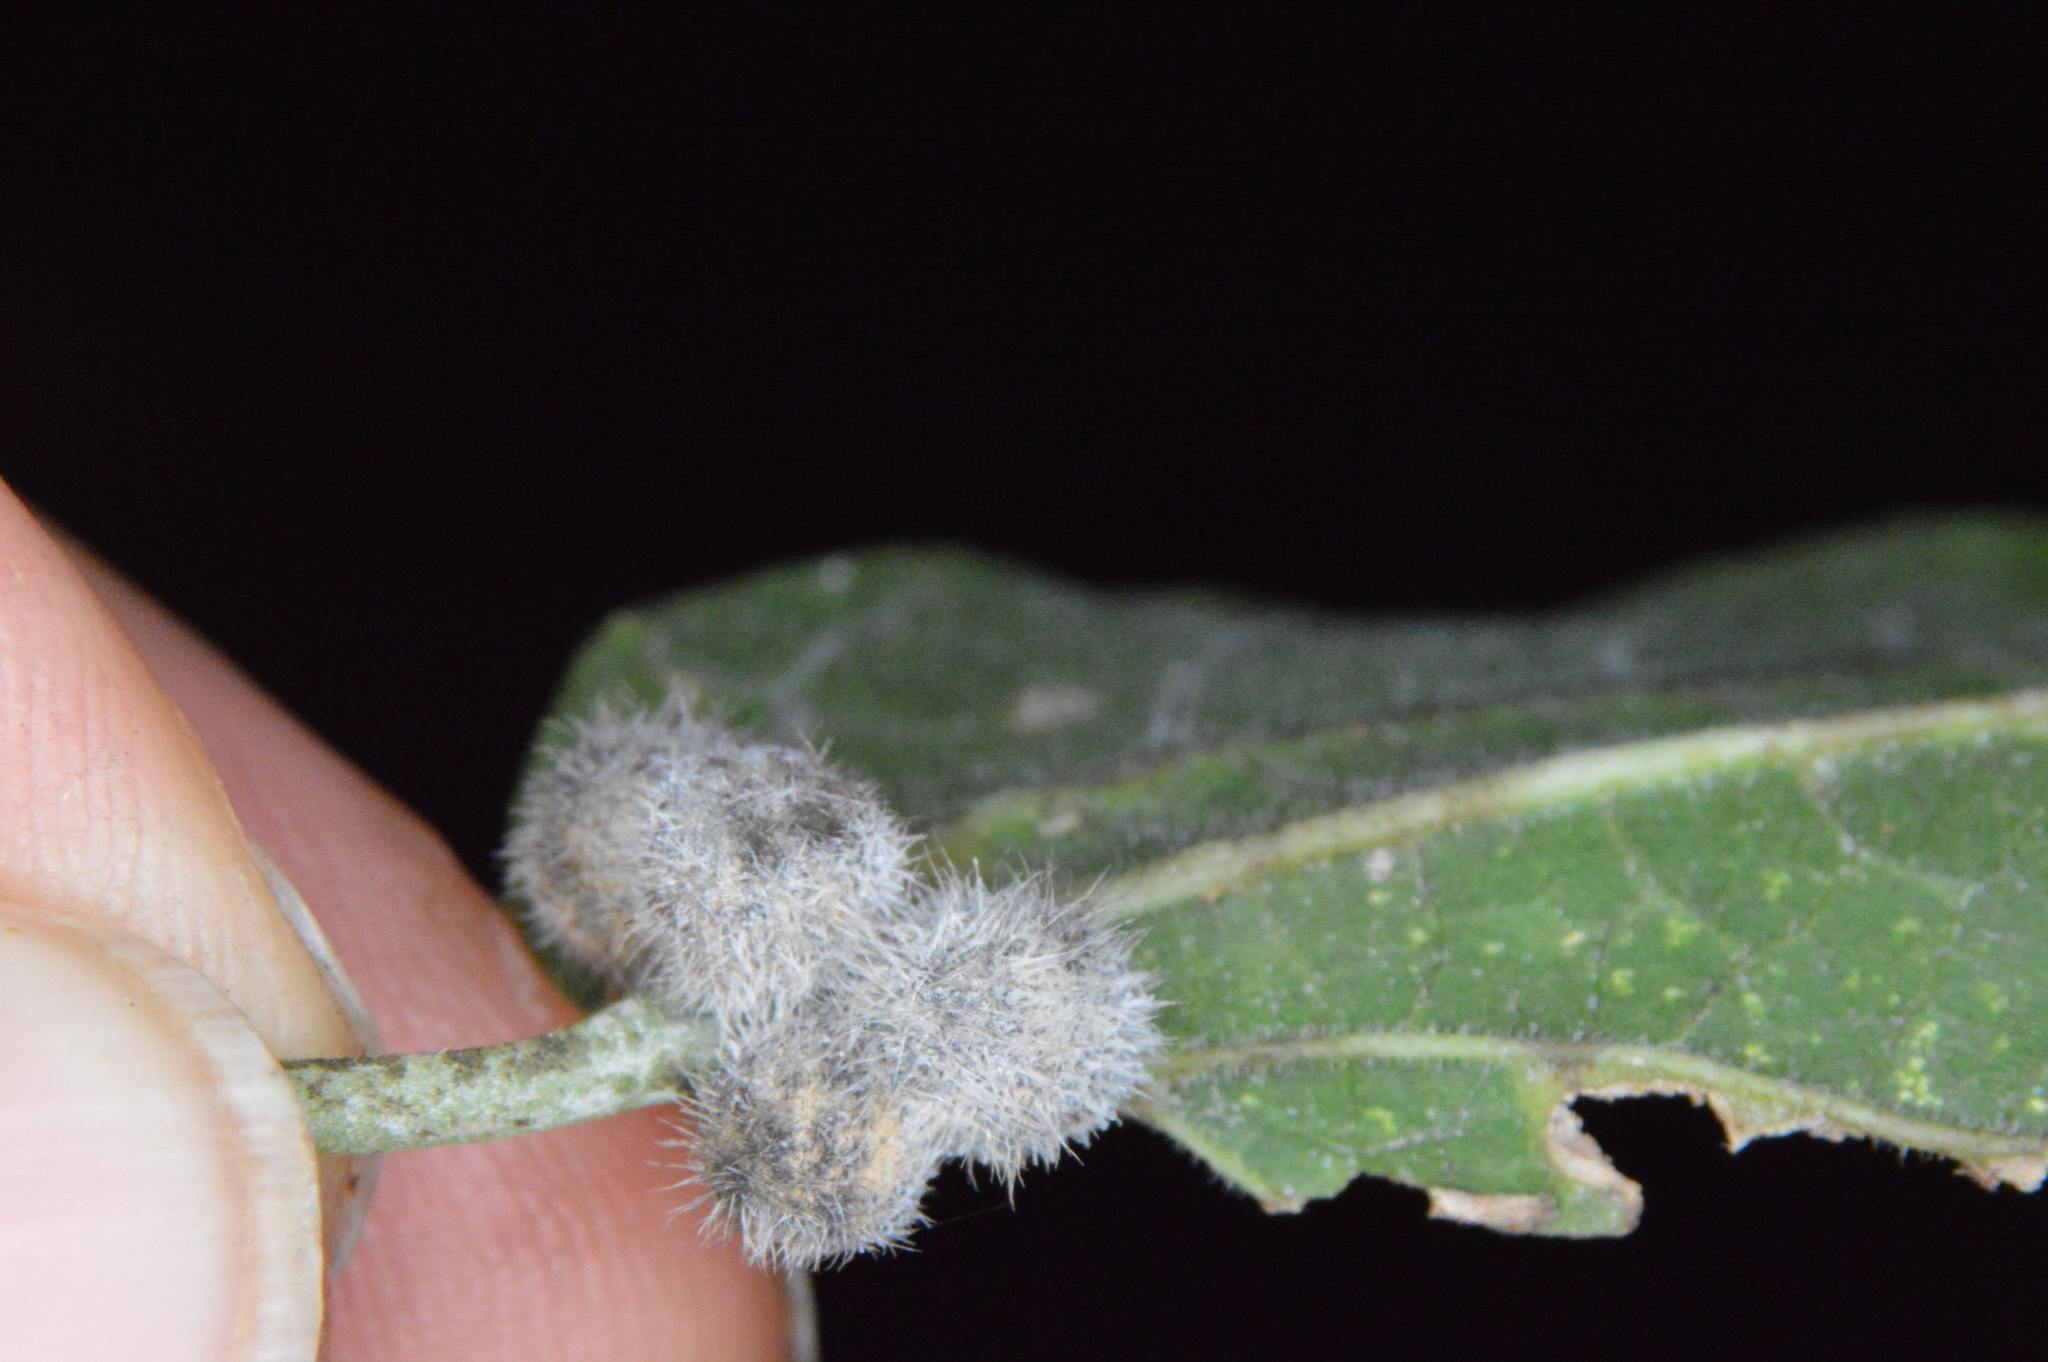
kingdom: Animalia
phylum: Arthropoda
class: Insecta
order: Diptera
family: Cecidomyiidae
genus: Celticecis
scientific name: Celticecis pubescens
